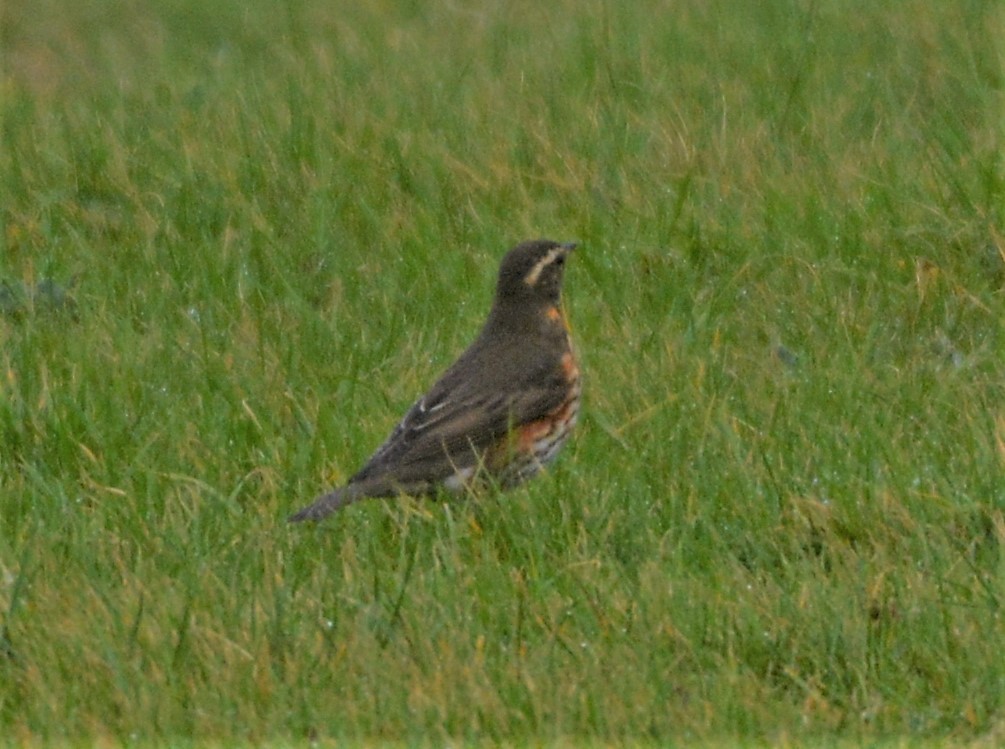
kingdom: Animalia
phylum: Chordata
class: Aves
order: Passeriformes
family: Turdidae
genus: Turdus
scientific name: Turdus iliacus
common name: Redwing
